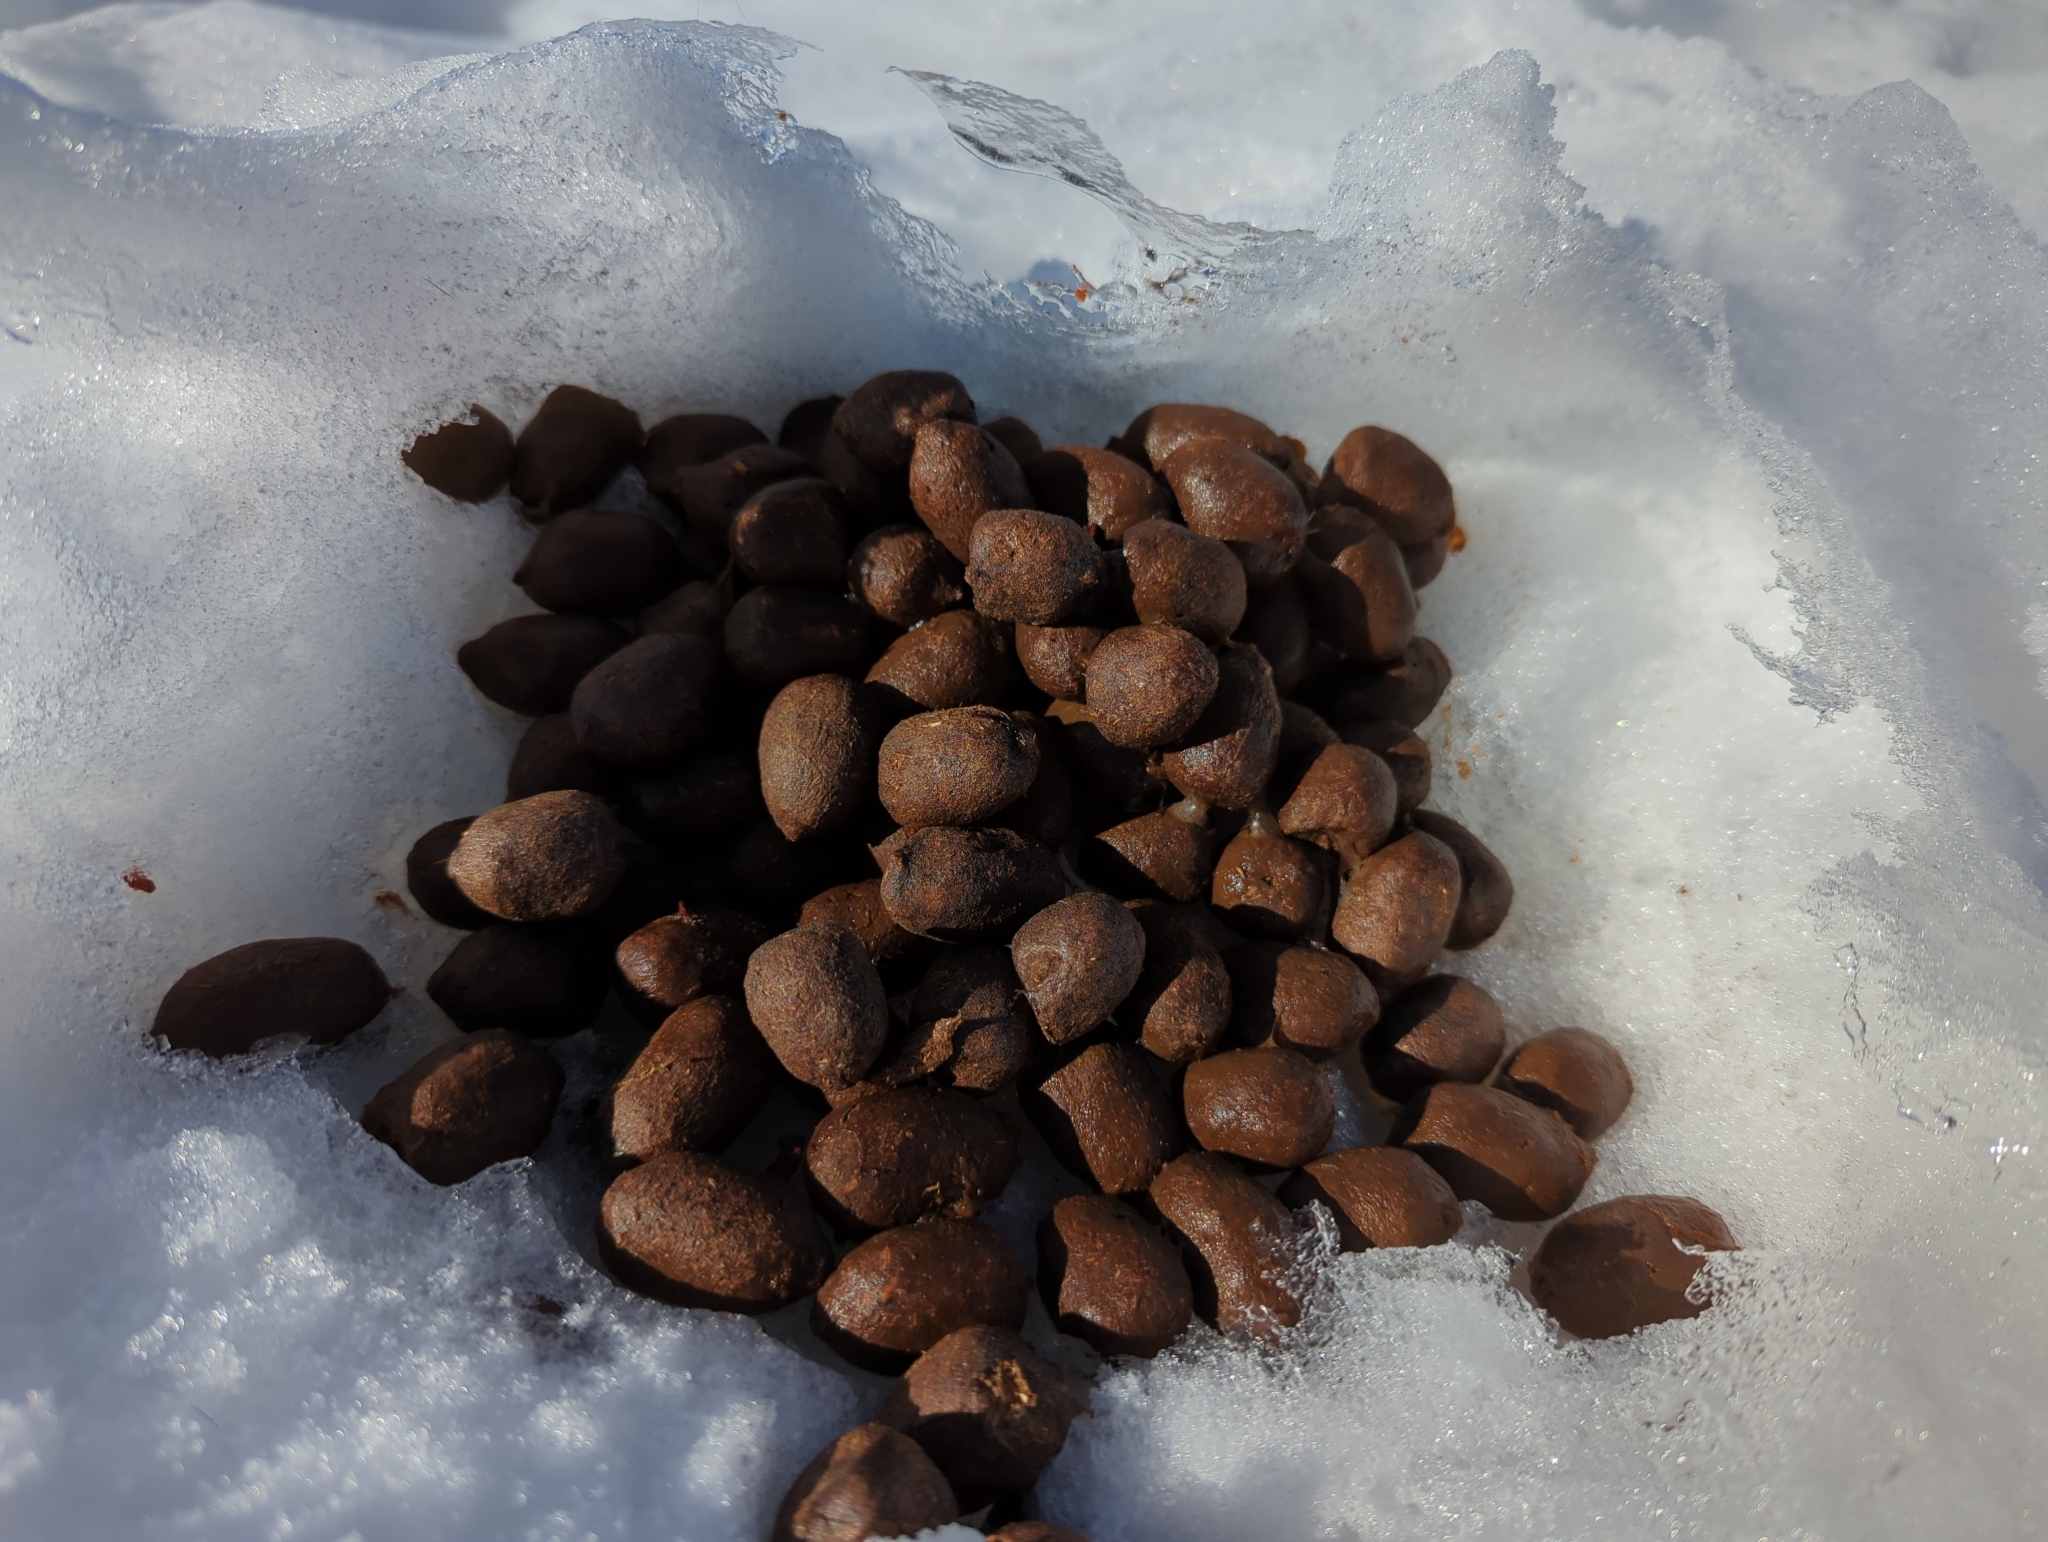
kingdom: Animalia
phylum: Chordata
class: Mammalia
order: Artiodactyla
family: Cervidae
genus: Alces
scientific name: Alces alces
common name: Moose
